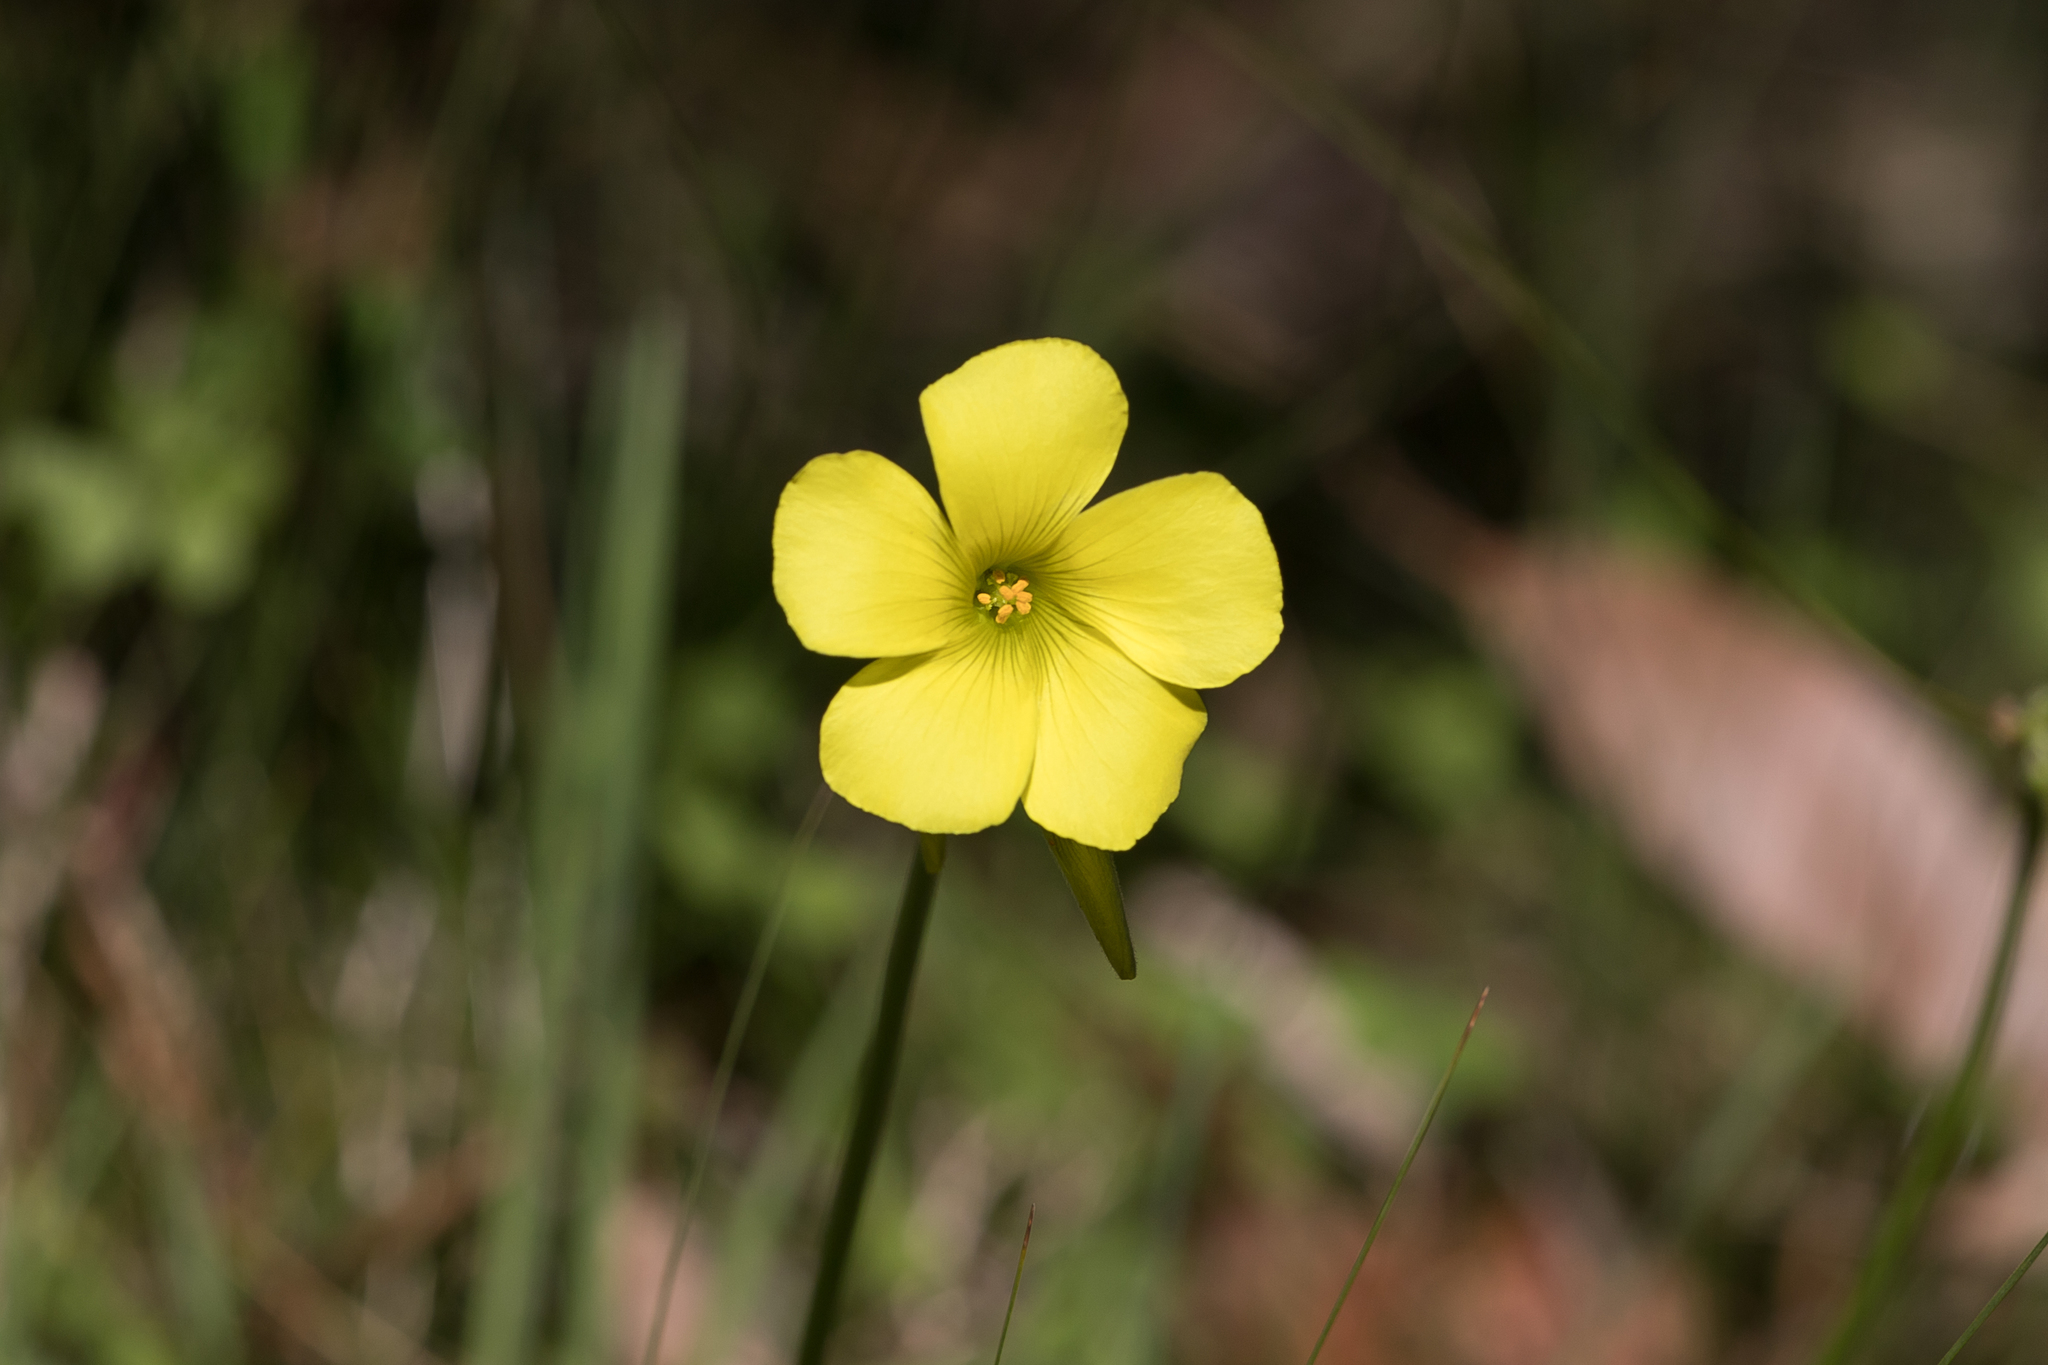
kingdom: Plantae
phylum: Tracheophyta
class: Magnoliopsida
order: Oxalidales
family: Oxalidaceae
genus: Oxalis
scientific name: Oxalis pes-caprae
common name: Bermuda-buttercup
